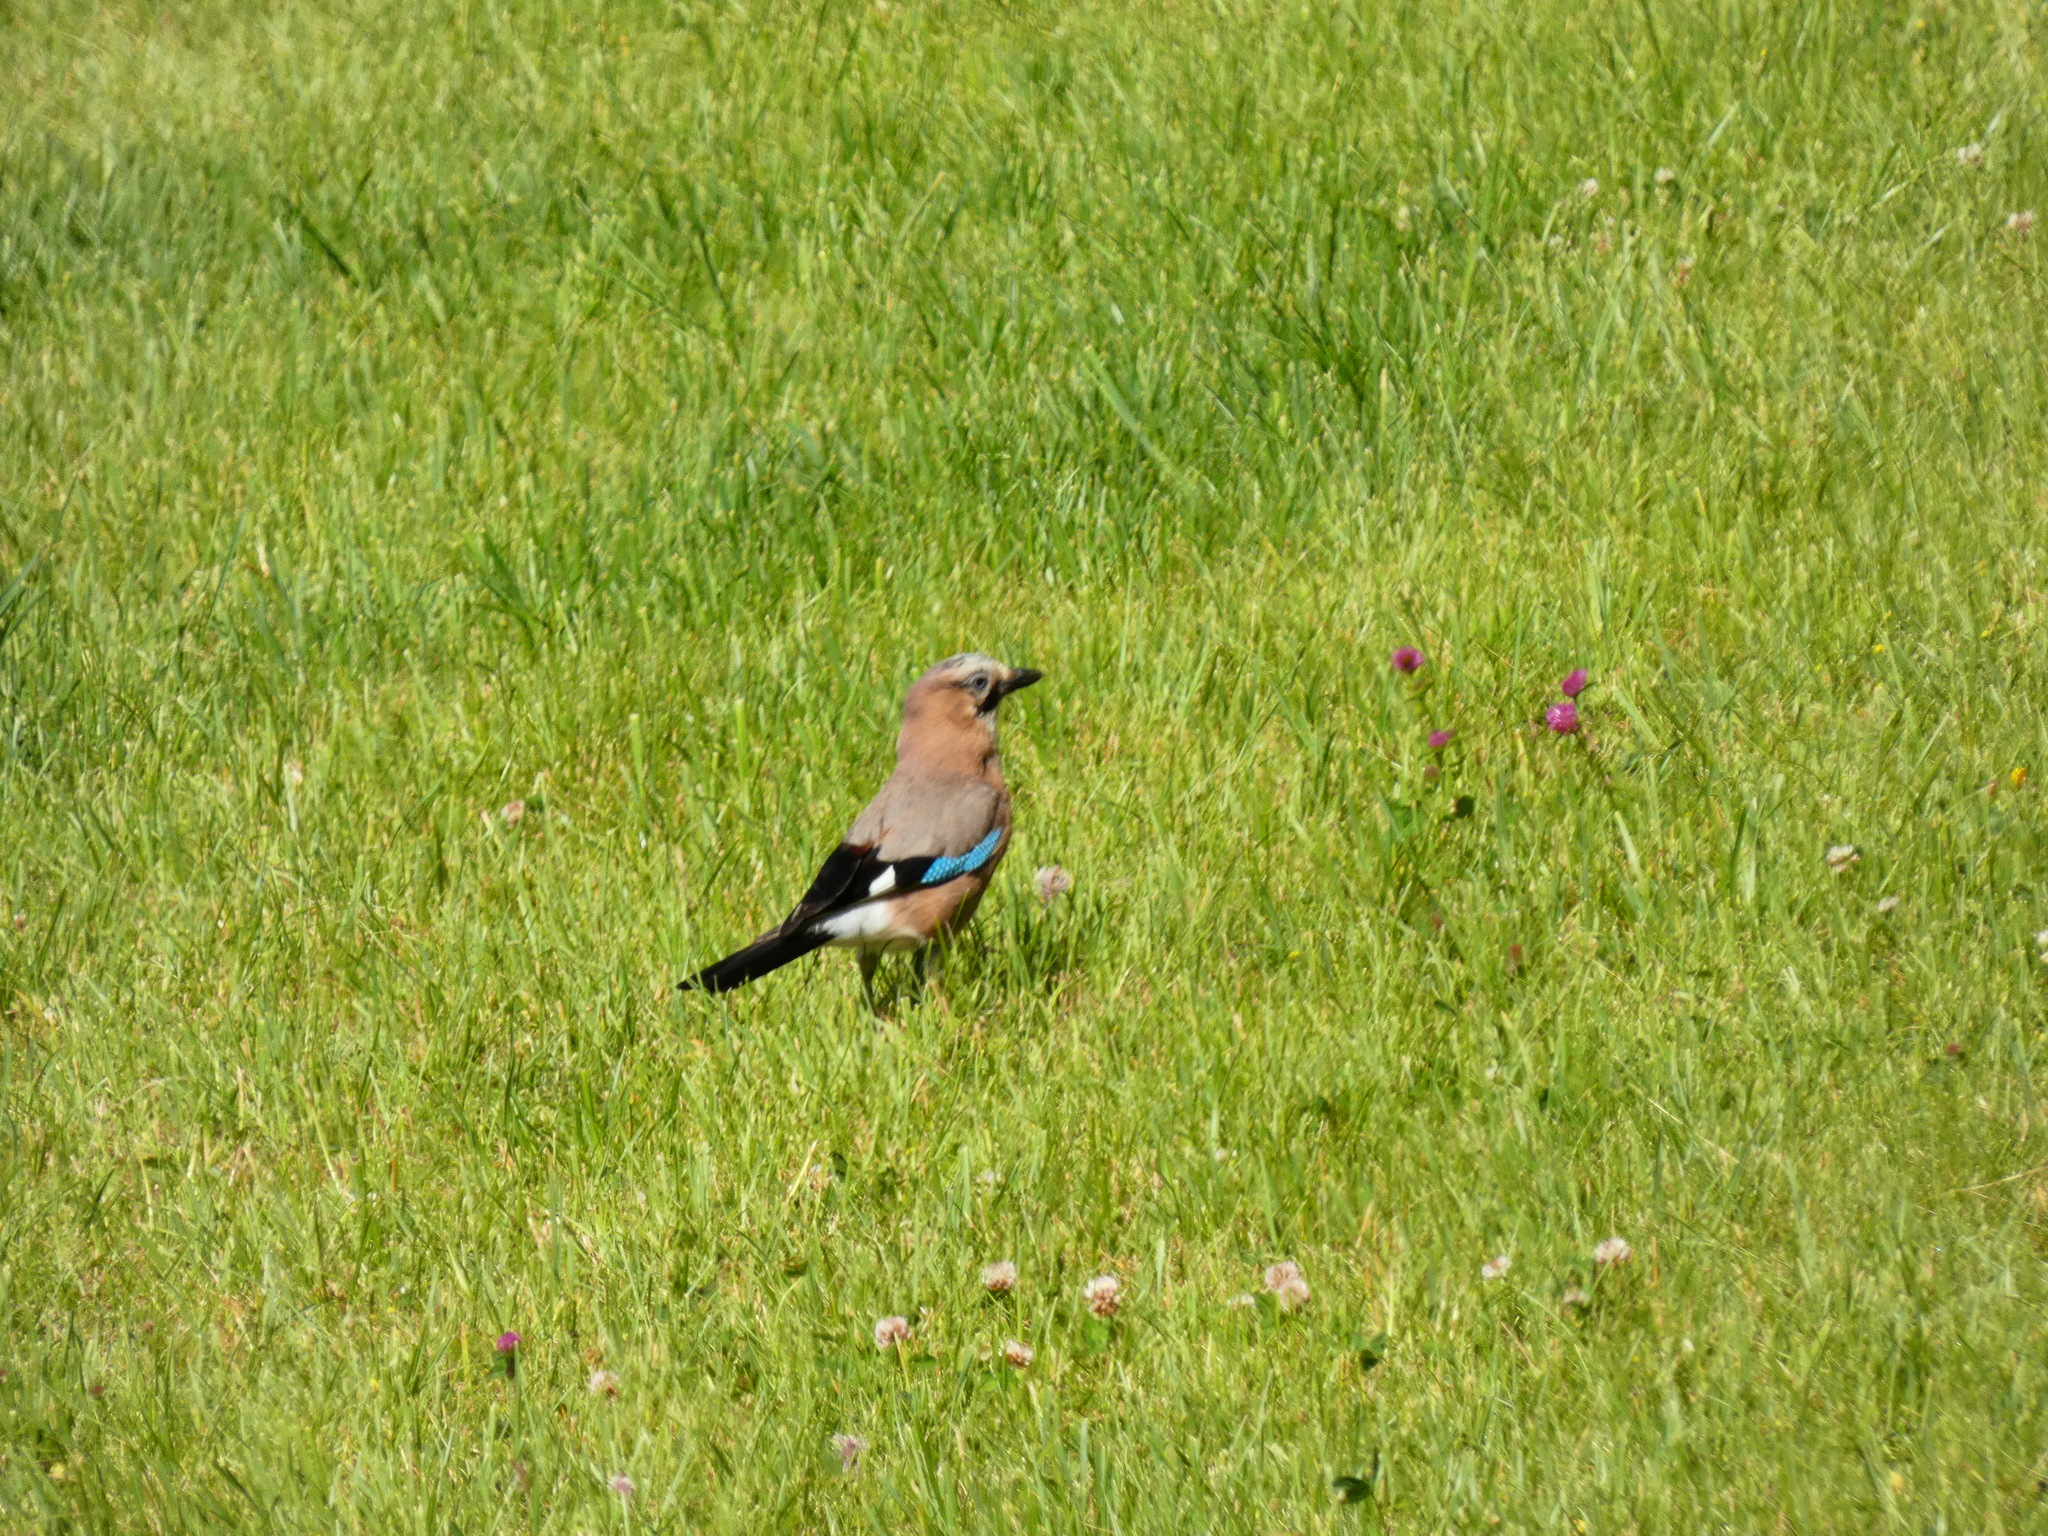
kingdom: Animalia
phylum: Chordata
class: Aves
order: Passeriformes
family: Corvidae
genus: Garrulus
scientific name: Garrulus glandarius
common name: Eurasian jay
